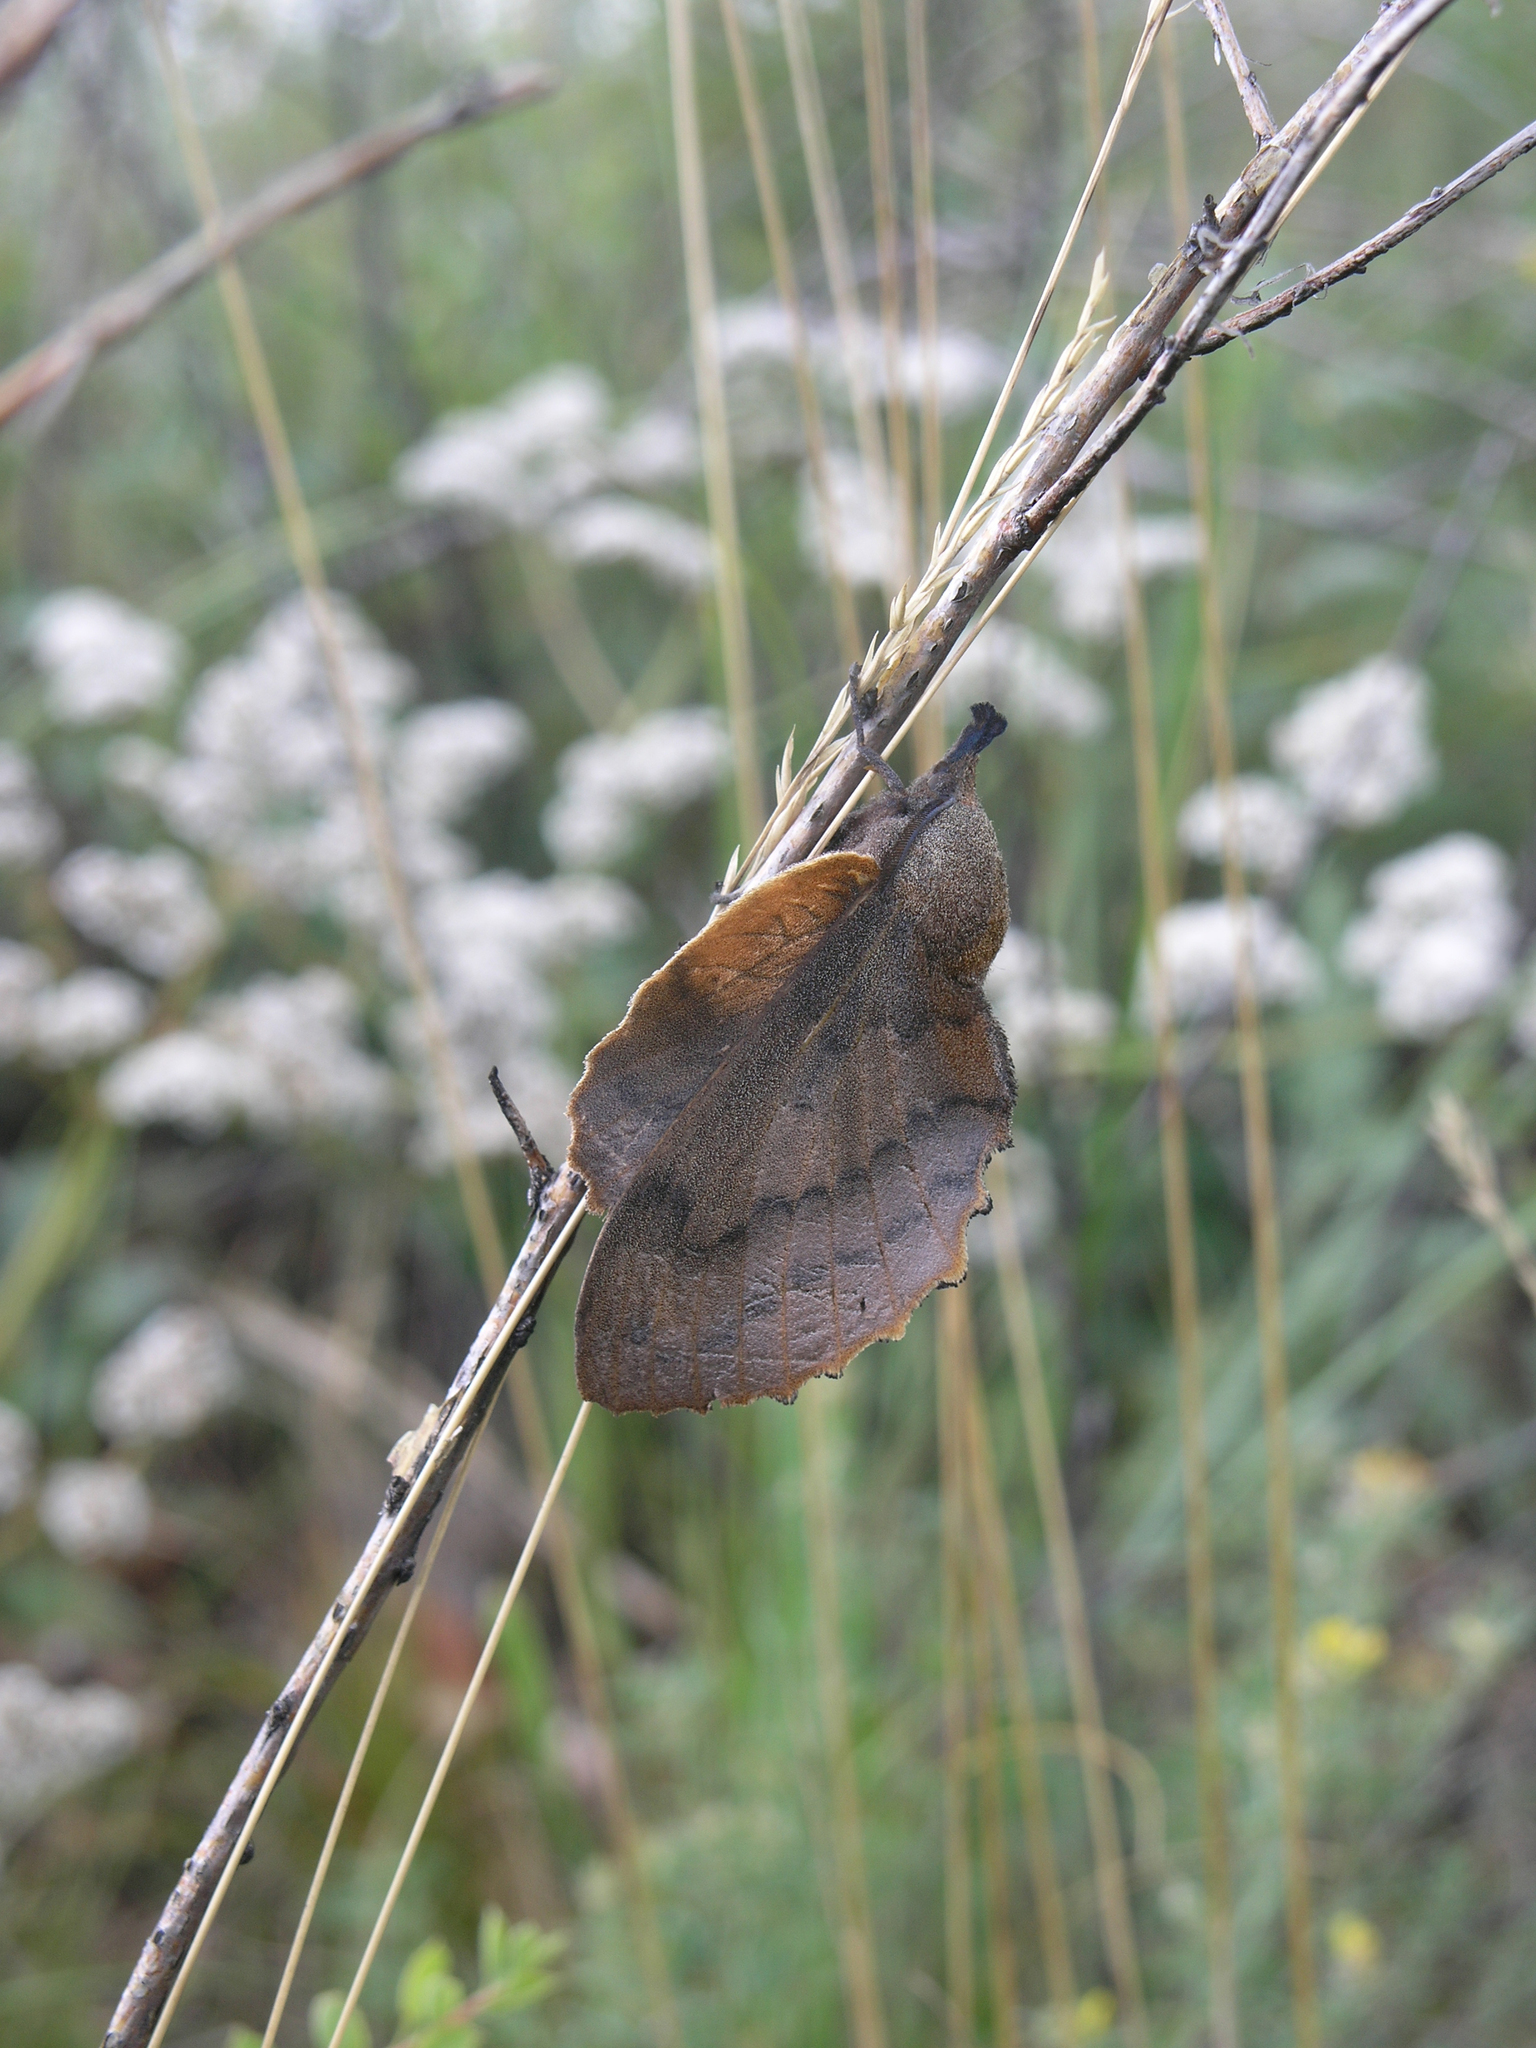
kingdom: Animalia
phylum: Arthropoda
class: Insecta
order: Lepidoptera
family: Lasiocampidae
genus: Gastropacha
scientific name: Gastropacha quercifolia
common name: Lappet
